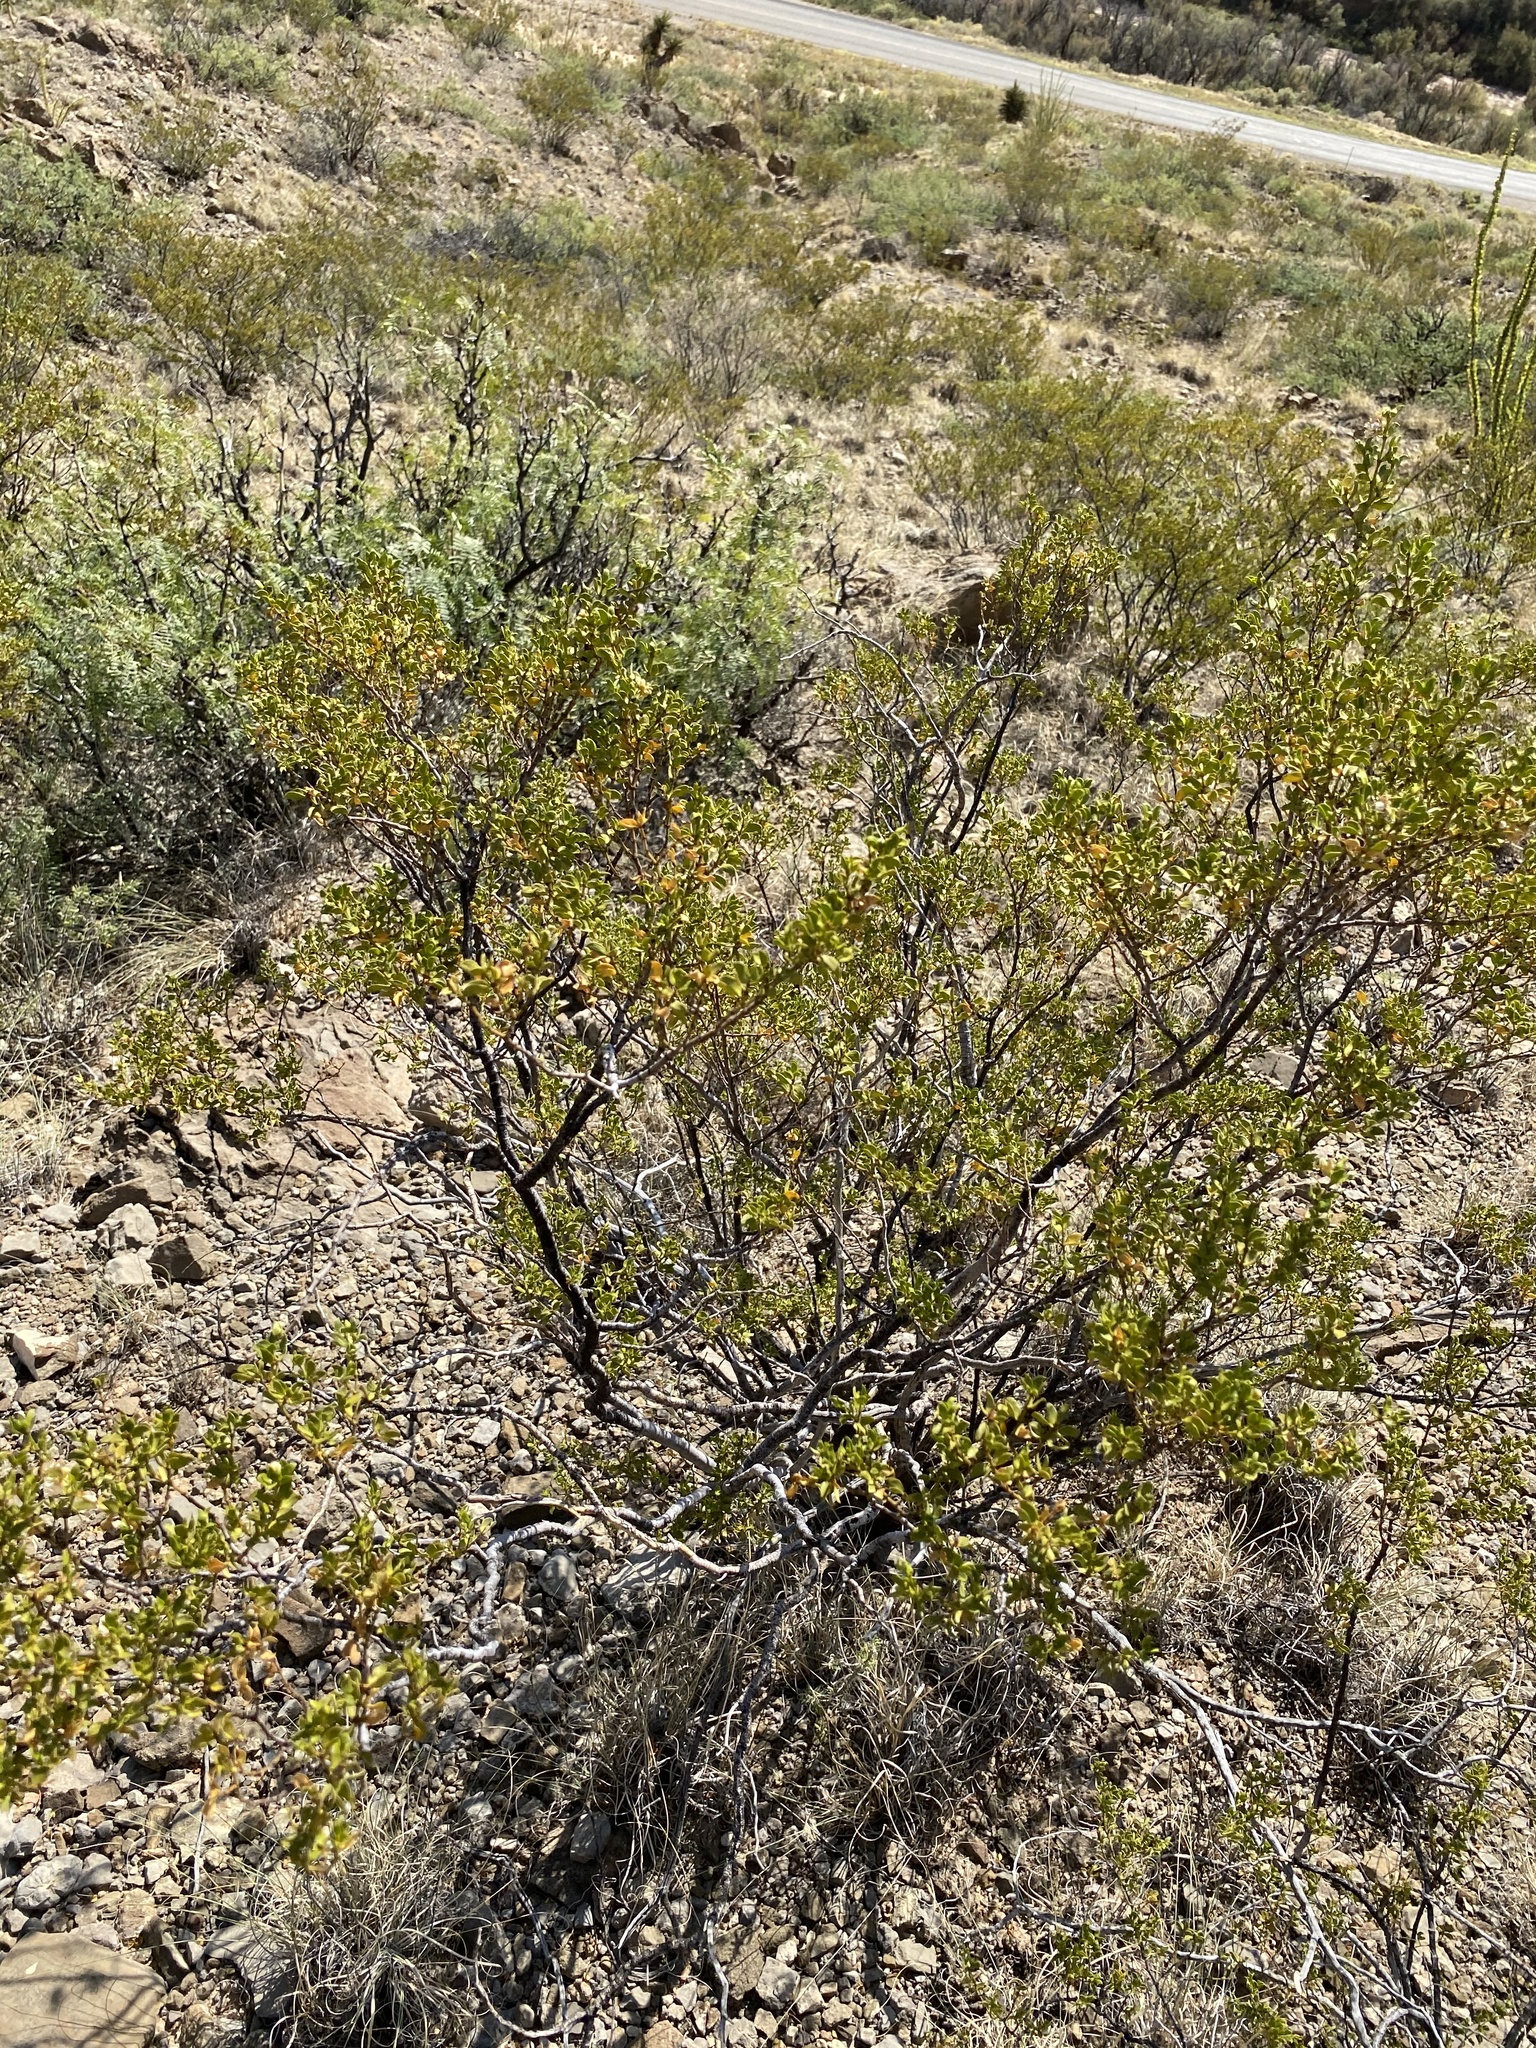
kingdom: Plantae
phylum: Tracheophyta
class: Magnoliopsida
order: Zygophyllales
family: Zygophyllaceae
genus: Larrea
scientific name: Larrea tridentata
